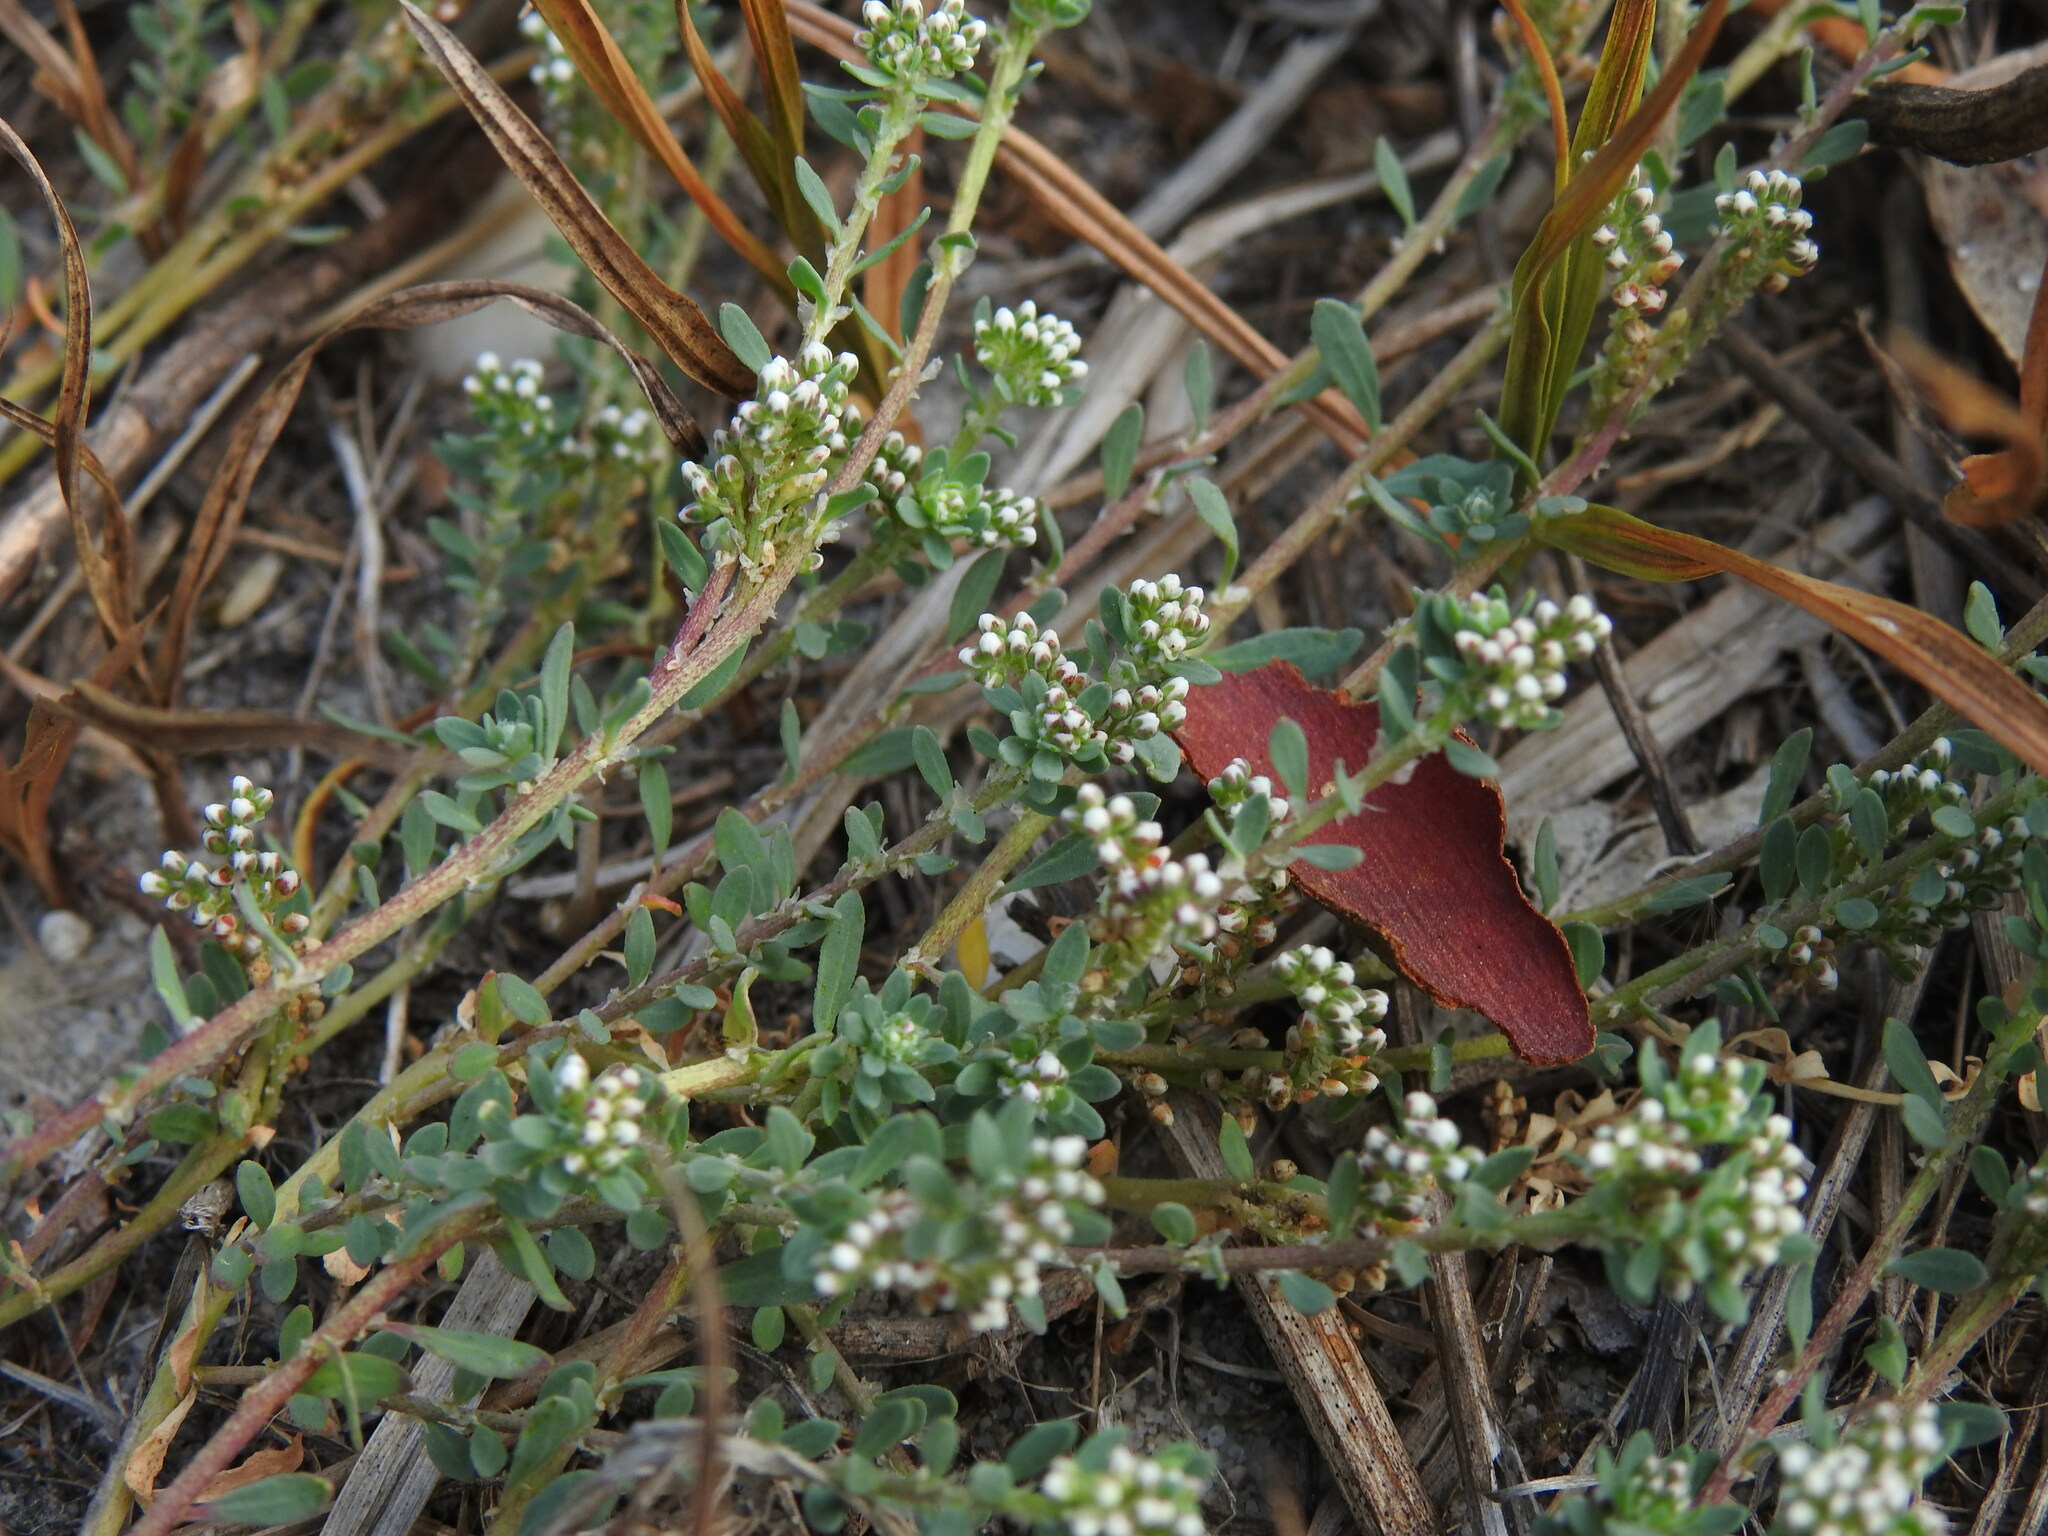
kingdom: Plantae
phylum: Tracheophyta
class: Magnoliopsida
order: Caryophyllales
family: Caryophyllaceae
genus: Corrigiola
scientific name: Corrigiola litoralis
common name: Strapwort
